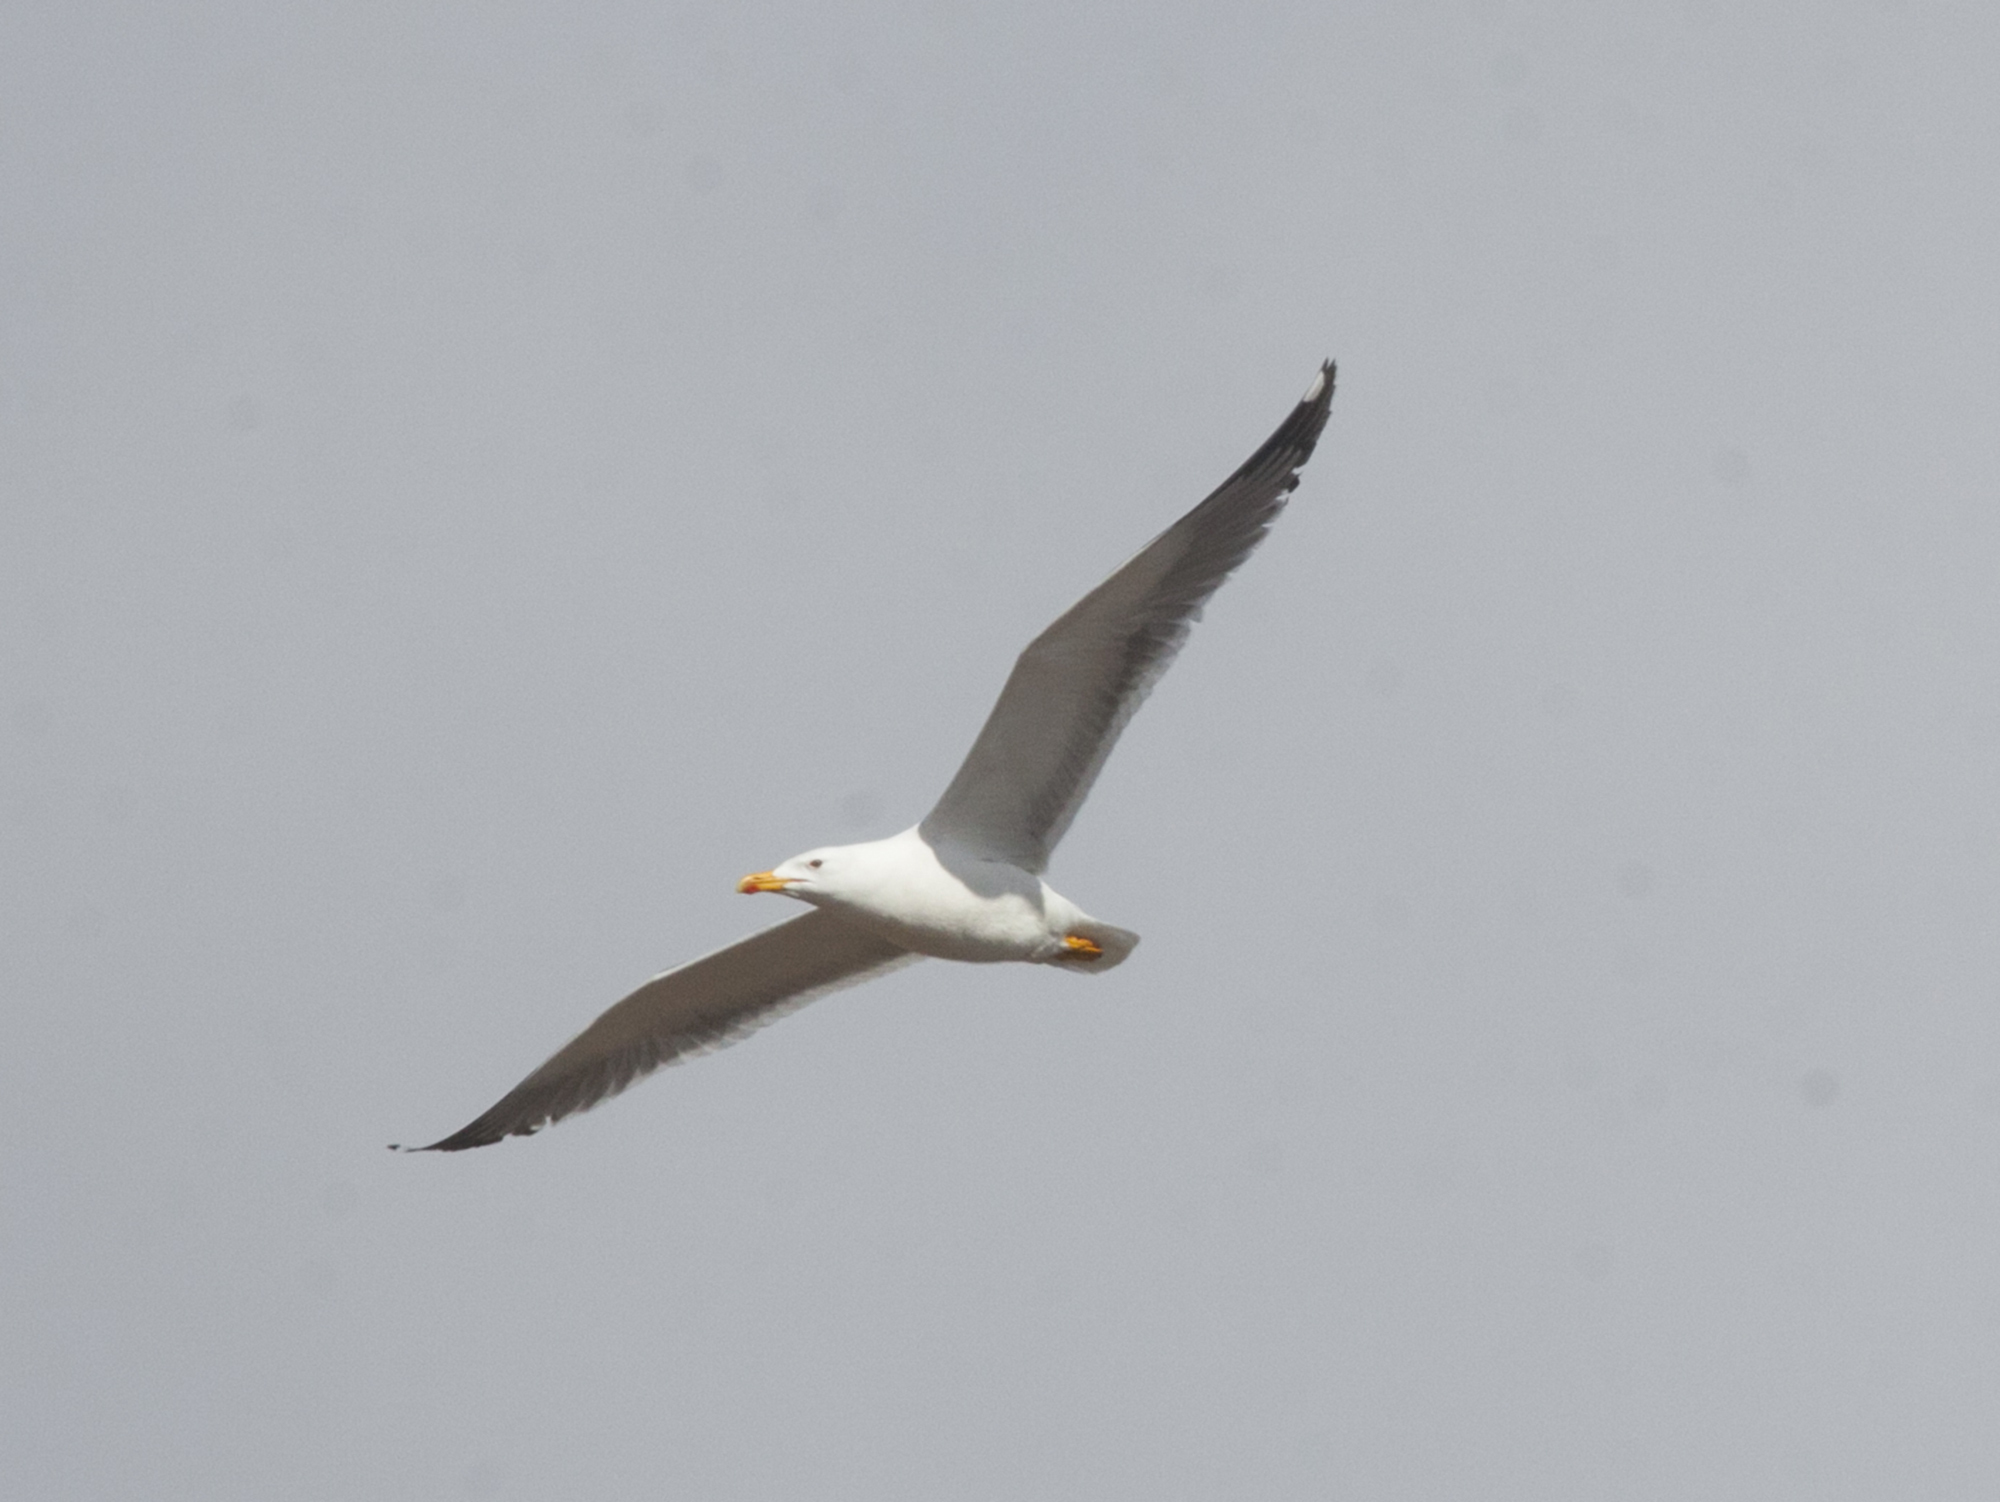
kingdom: Animalia
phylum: Chordata
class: Aves
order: Charadriiformes
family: Laridae
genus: Larus
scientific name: Larus fuscus
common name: Lesser black-backed gull
